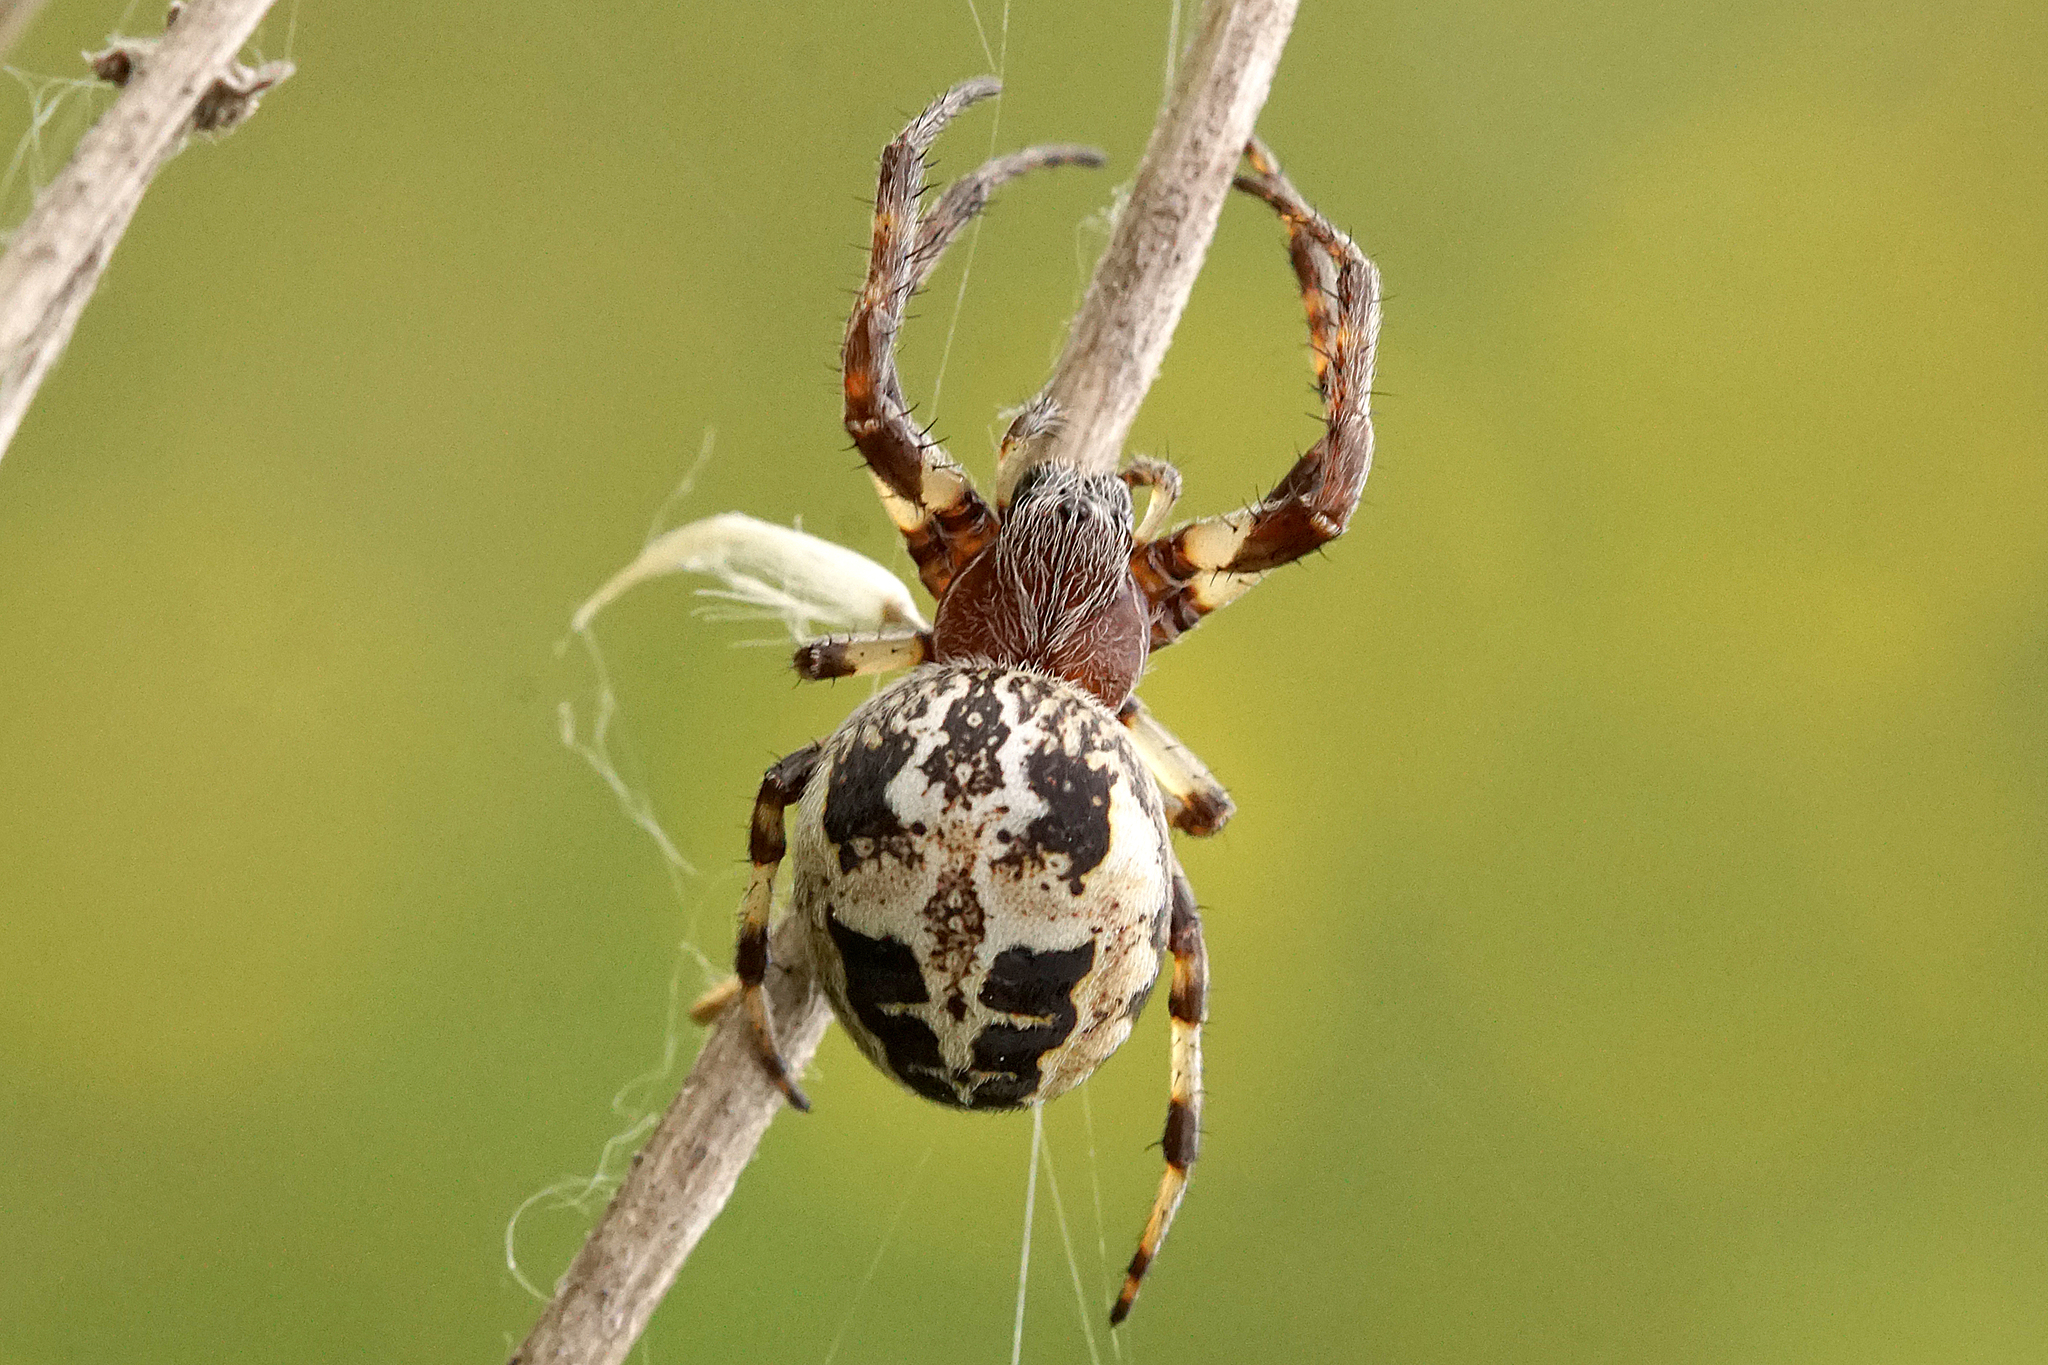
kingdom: Animalia
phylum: Arthropoda
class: Arachnida
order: Araneae
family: Araneidae
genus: Larinioides
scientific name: Larinioides cornutus
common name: Furrow orbweaver
